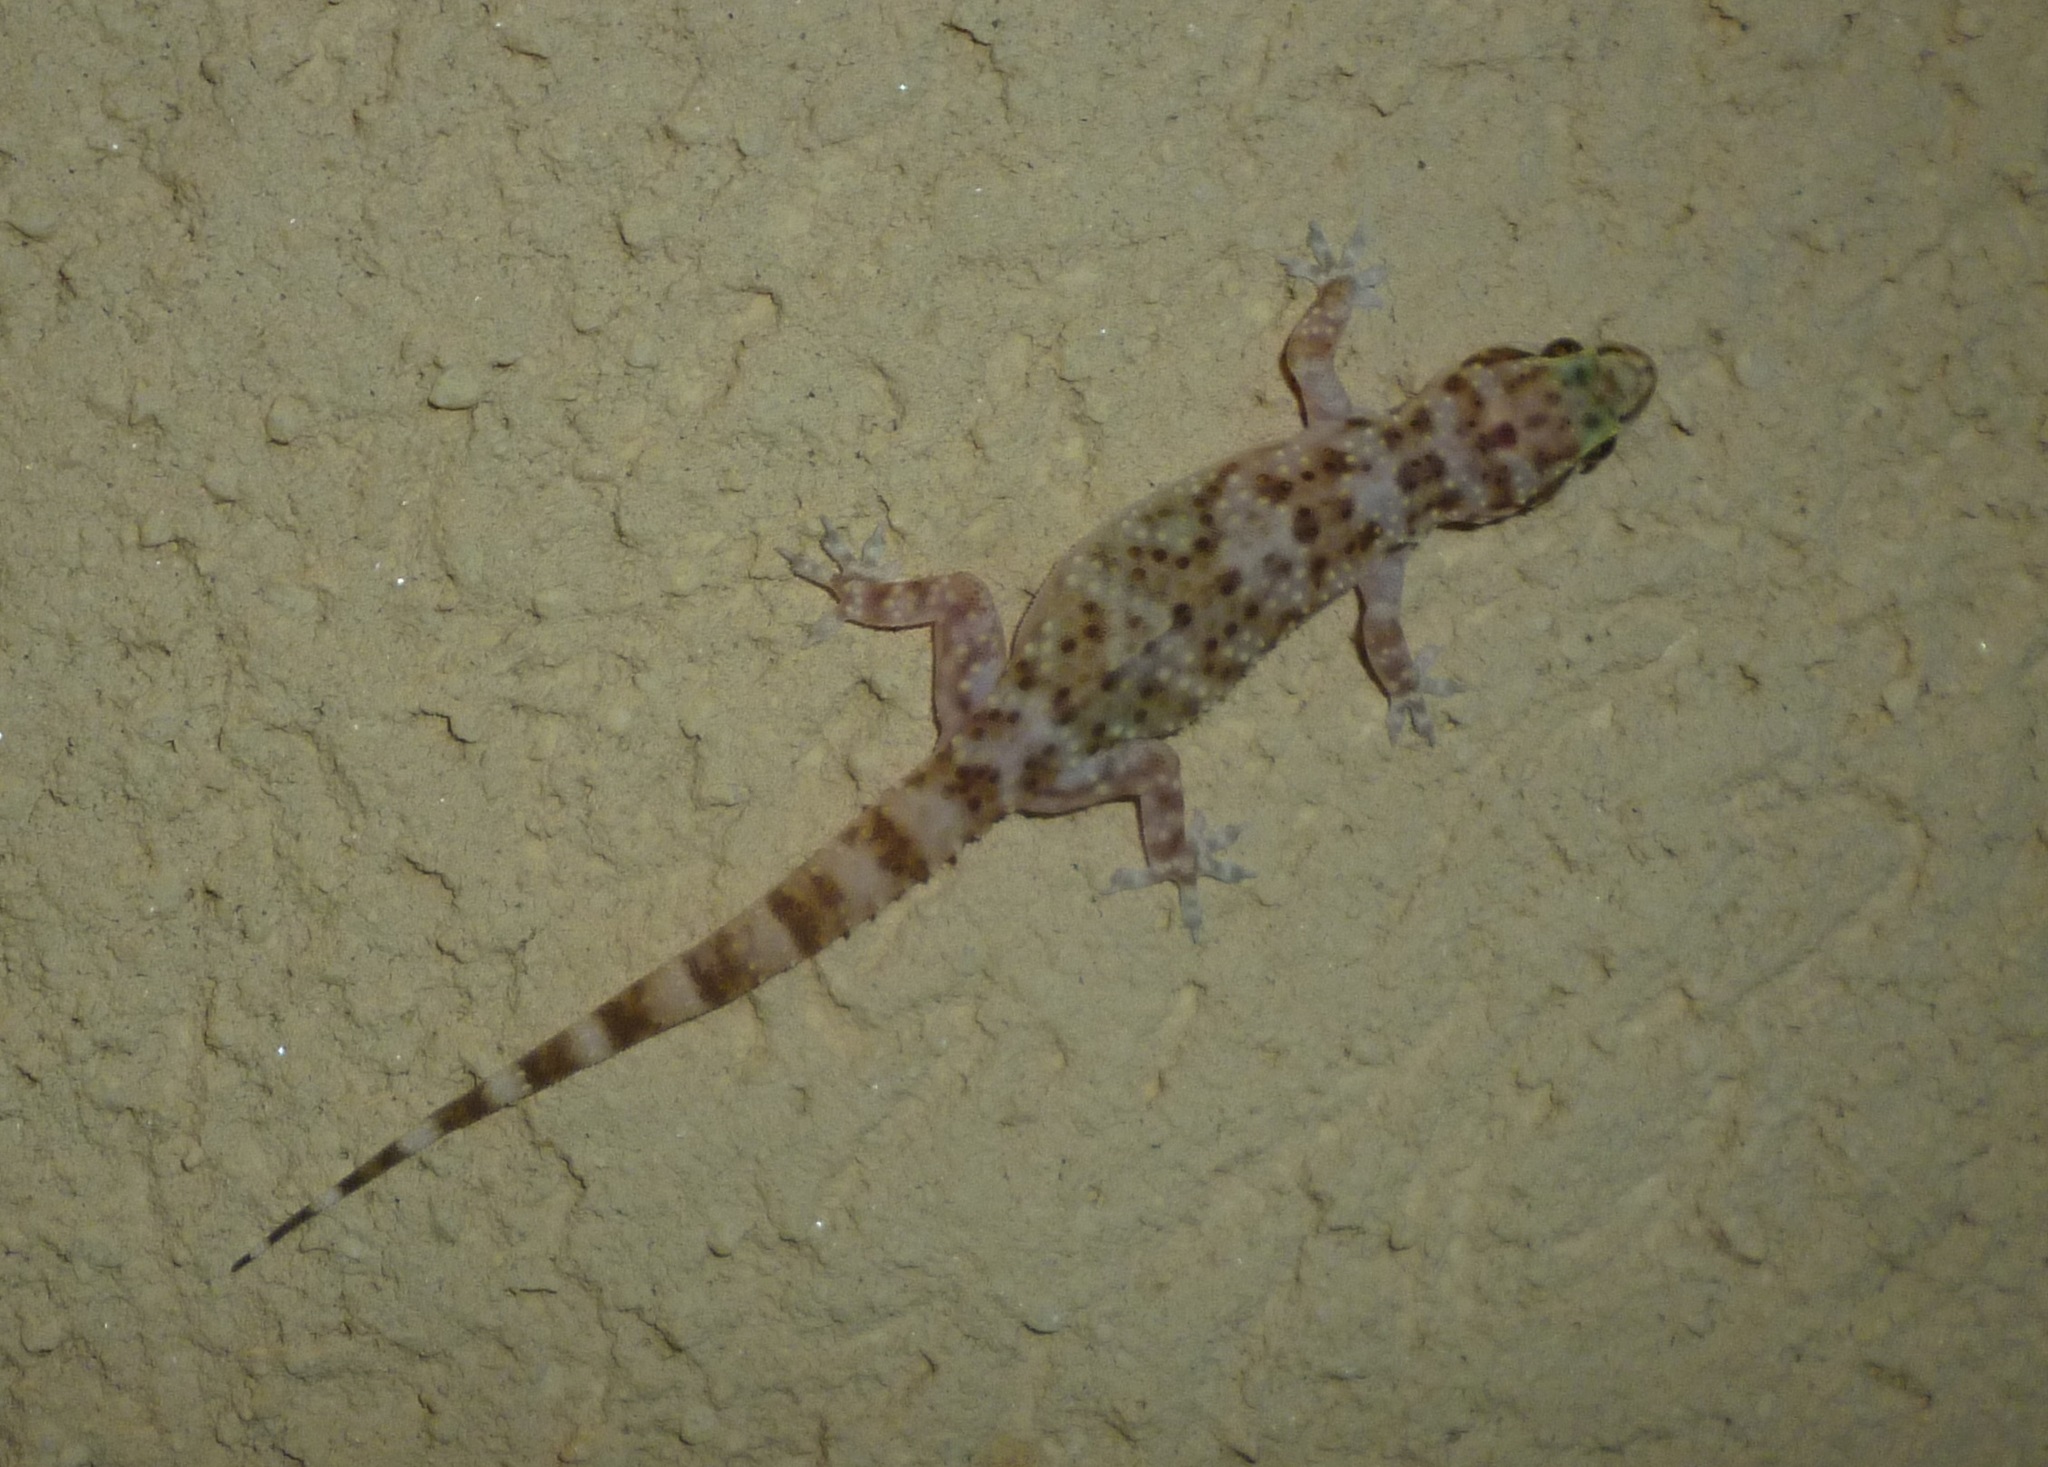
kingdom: Animalia
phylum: Chordata
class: Squamata
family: Gekkonidae
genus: Hemidactylus
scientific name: Hemidactylus turcicus
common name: Turkish gecko
